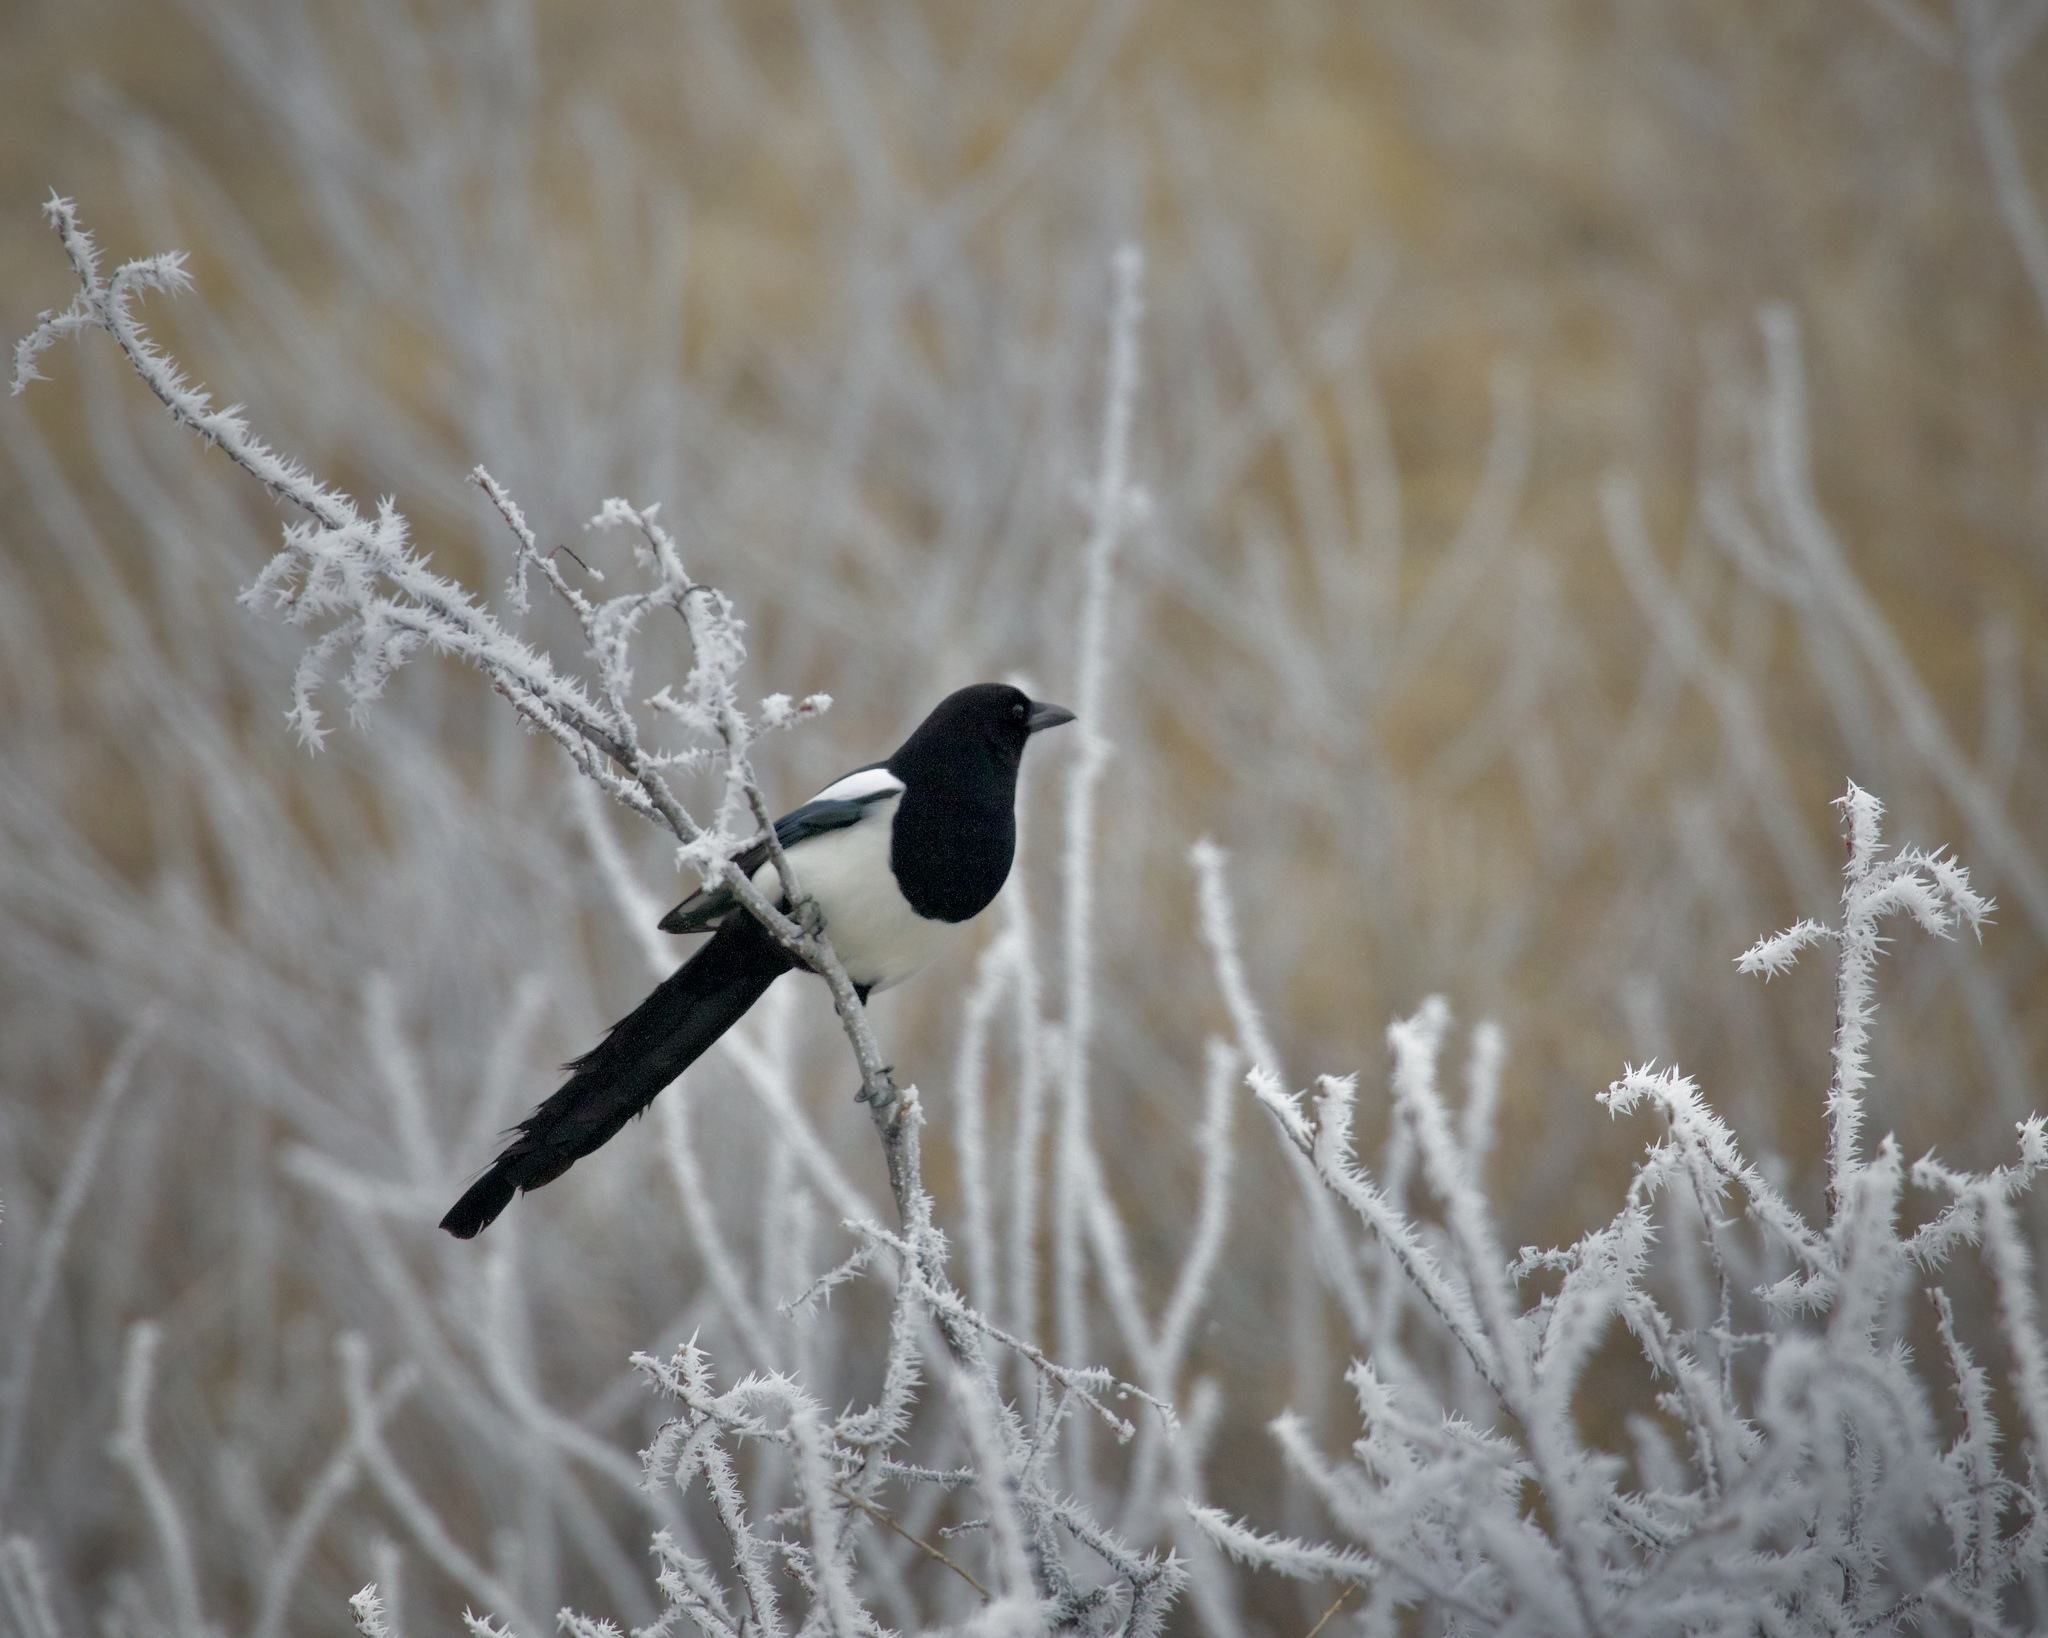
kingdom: Animalia
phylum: Chordata
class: Aves
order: Passeriformes
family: Corvidae
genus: Pica
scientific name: Pica hudsonia
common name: Black-billed magpie
